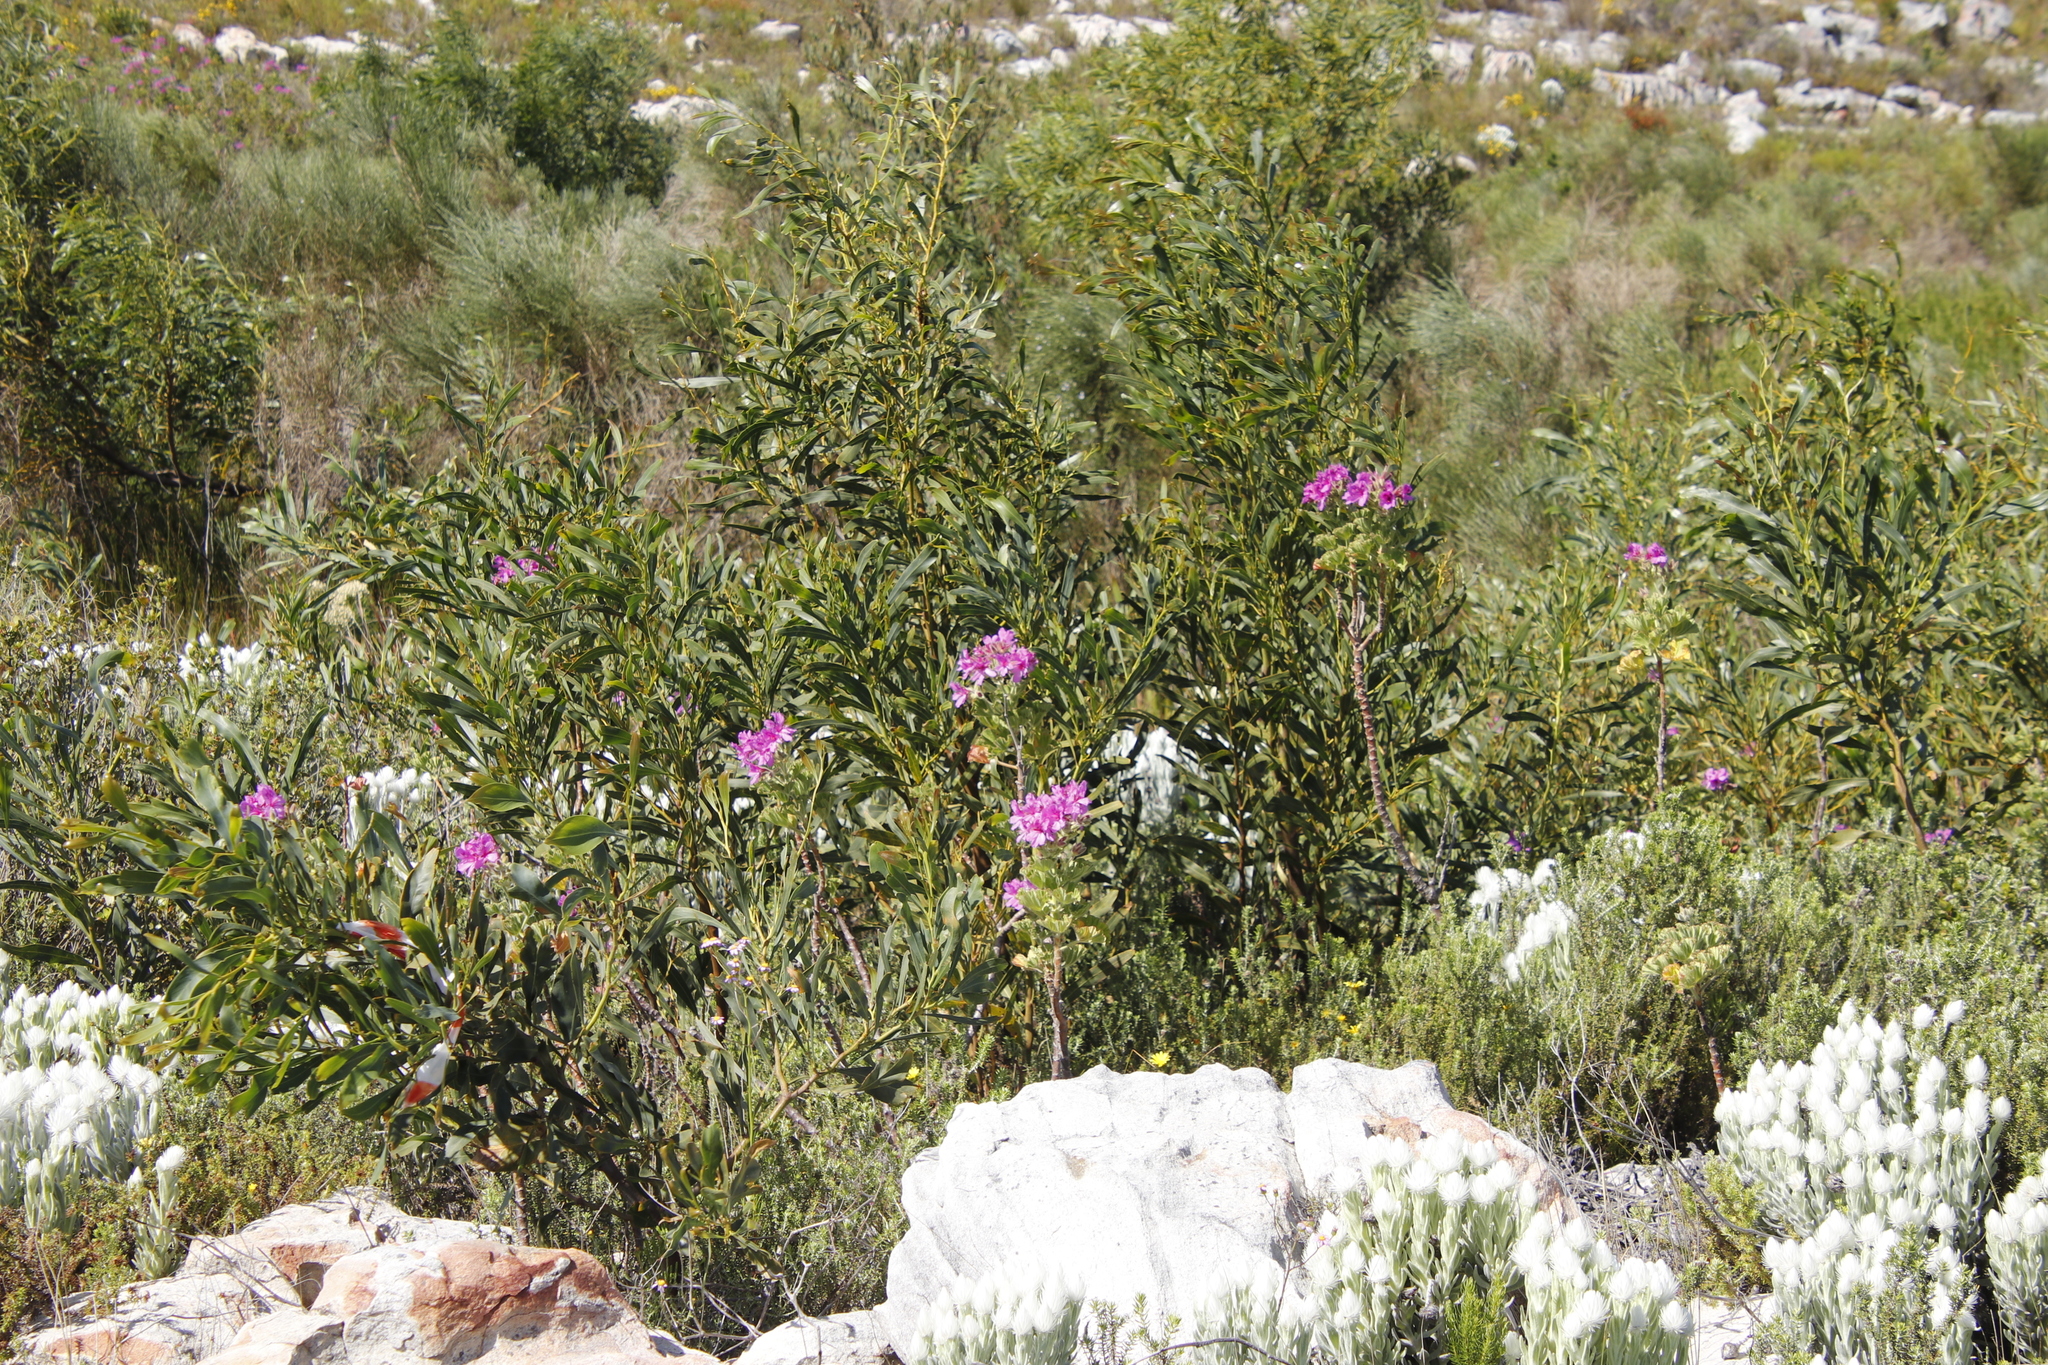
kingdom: Plantae
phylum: Tracheophyta
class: Magnoliopsida
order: Geraniales
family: Geraniaceae
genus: Pelargonium
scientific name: Pelargonium cucullatum
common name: Tree pelargonium
